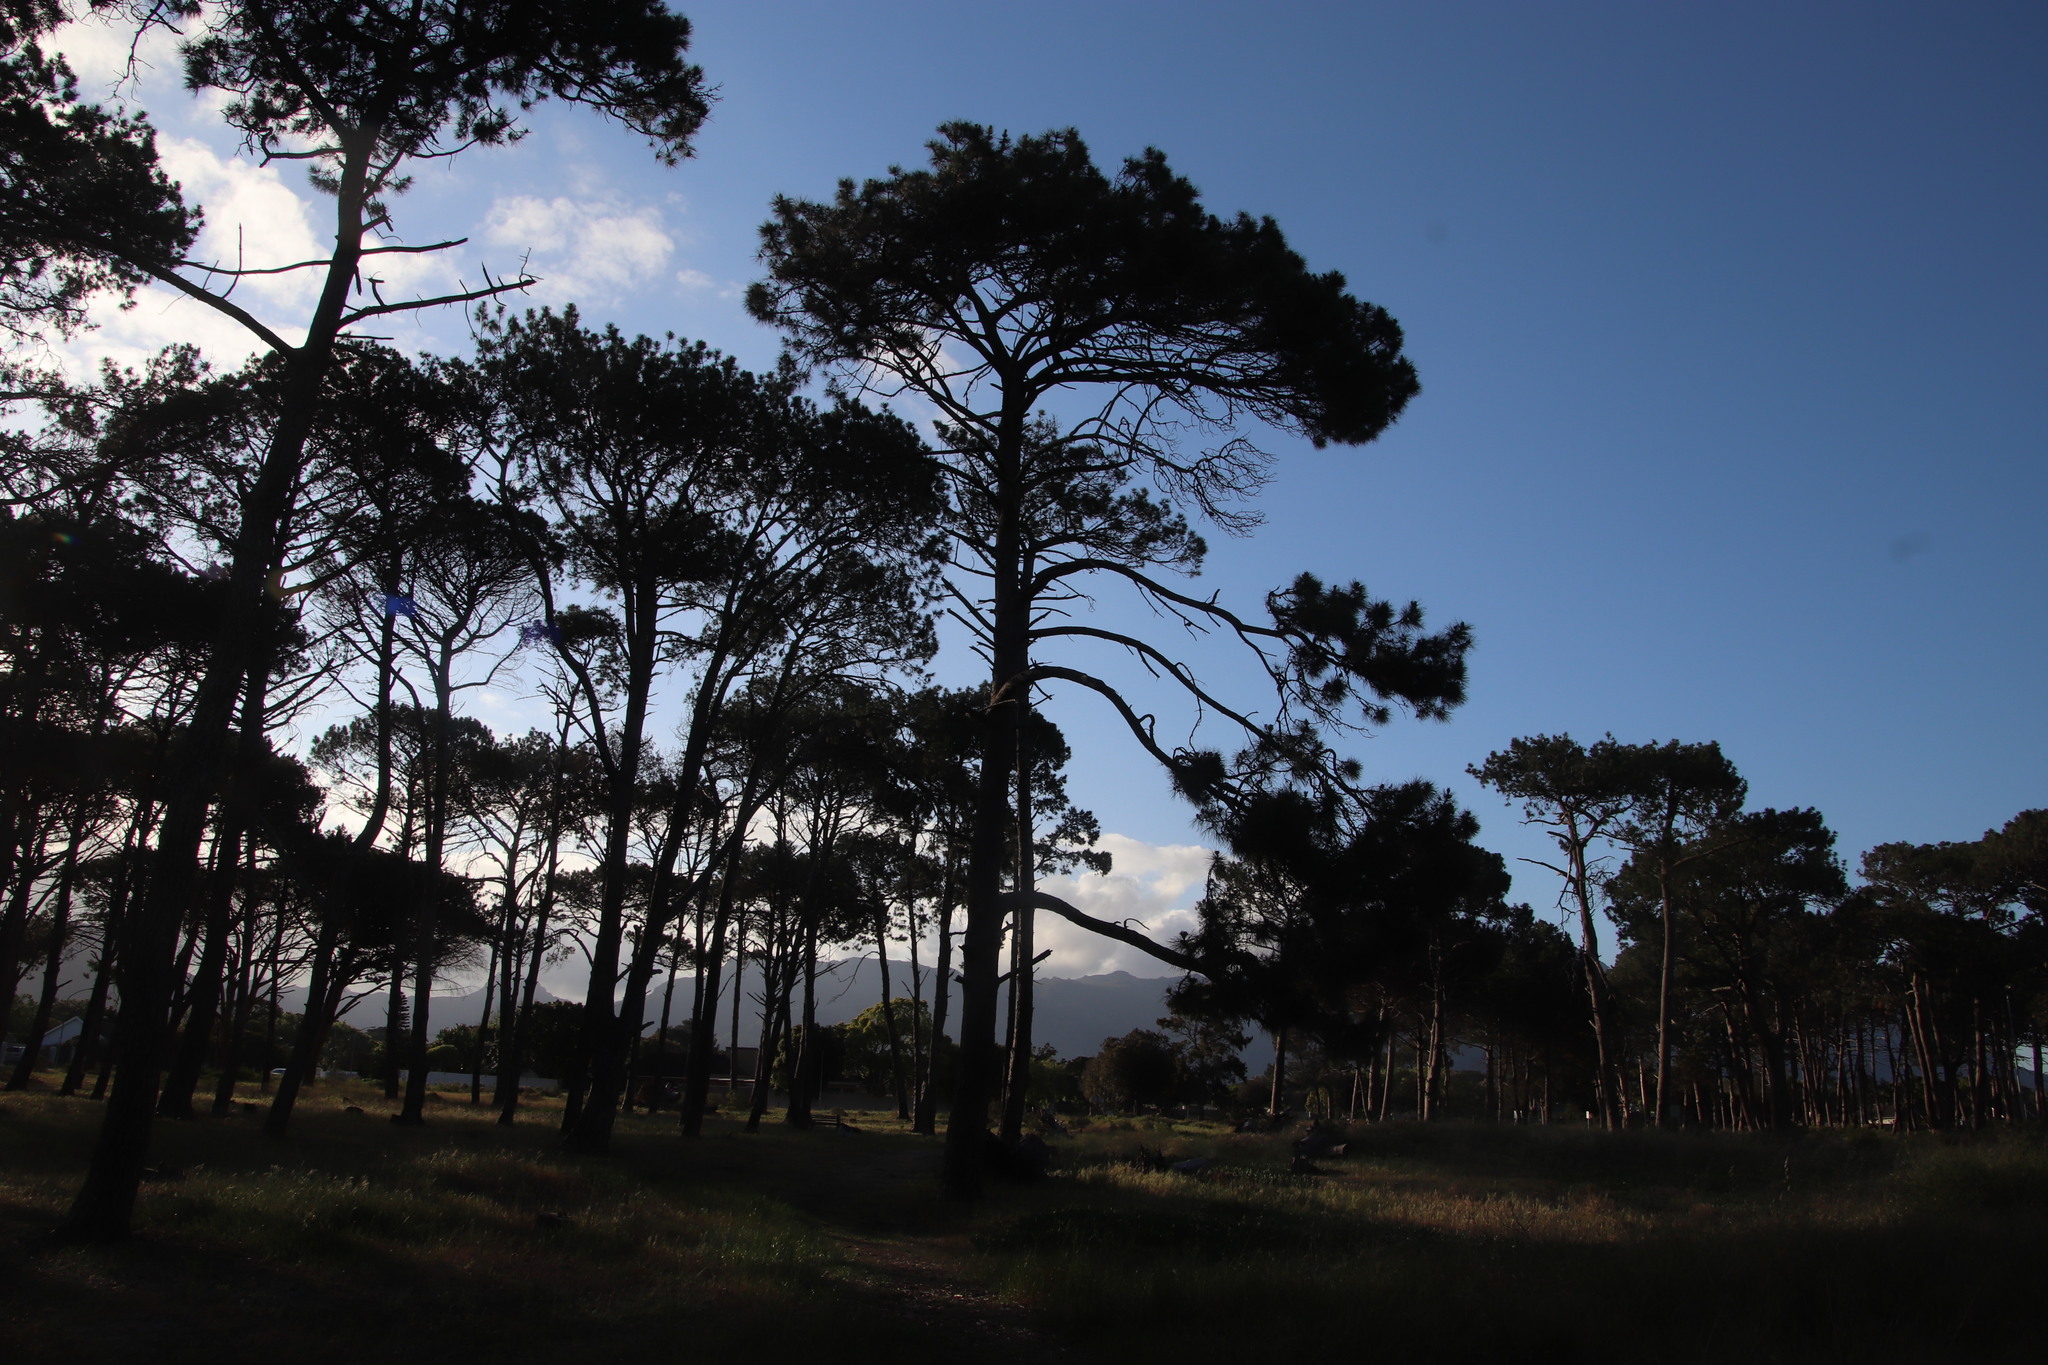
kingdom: Plantae
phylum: Tracheophyta
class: Pinopsida
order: Pinales
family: Pinaceae
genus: Pinus
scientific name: Pinus pinea
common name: Italian stone pine
